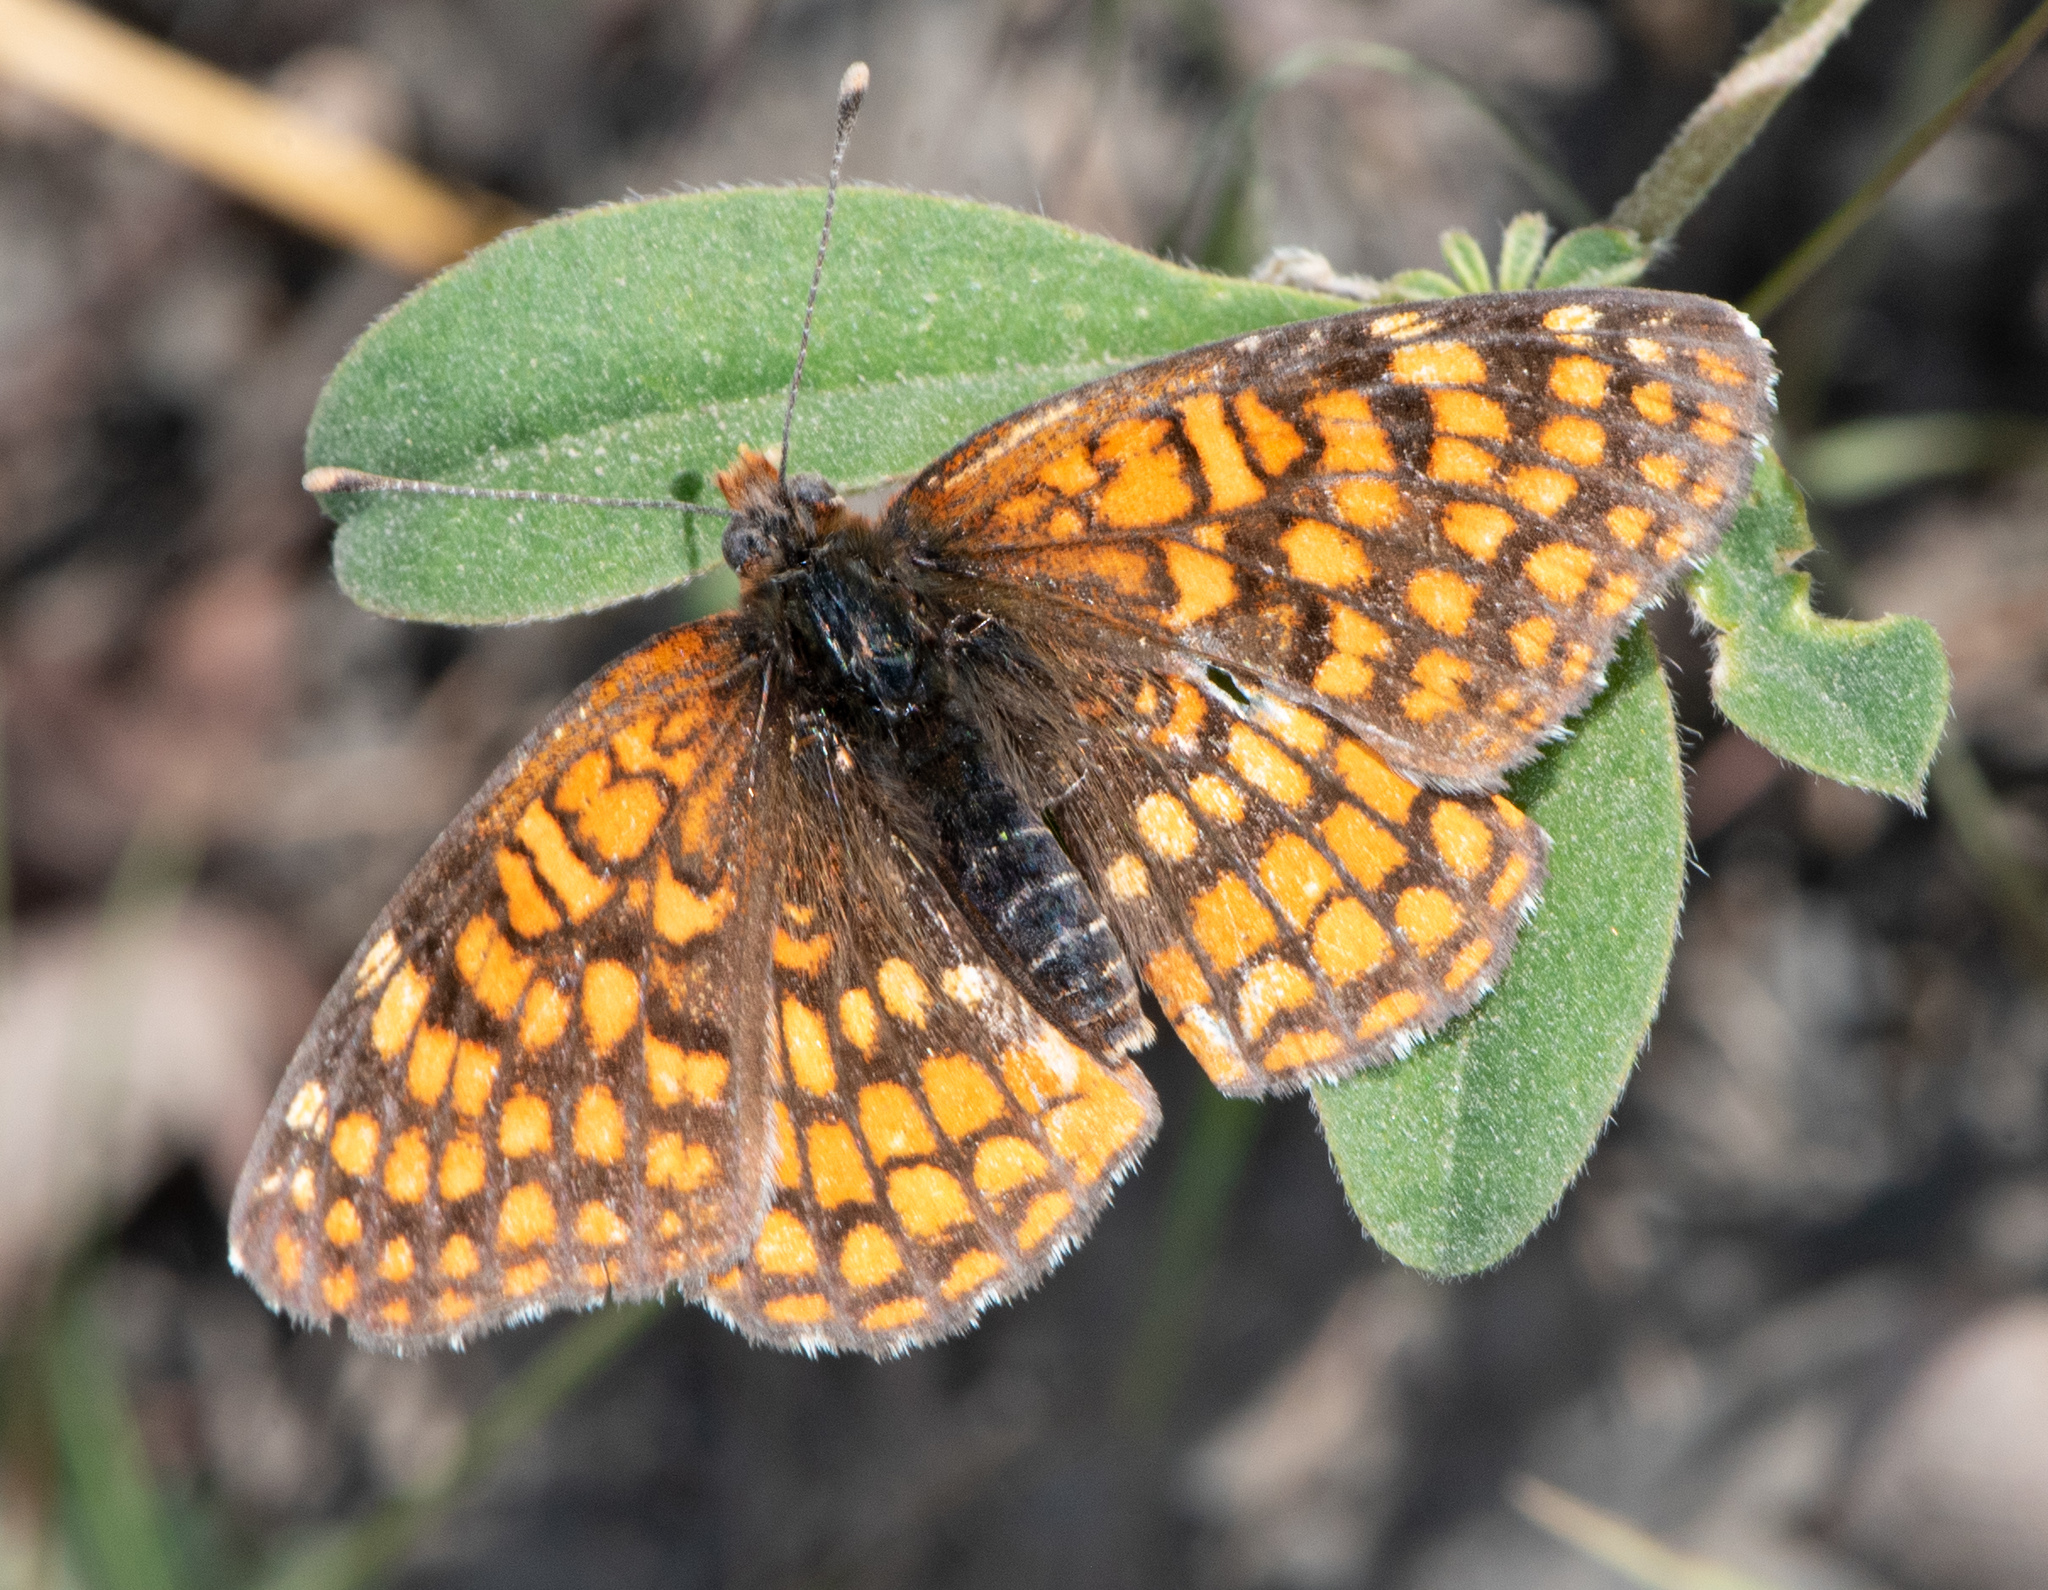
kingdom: Animalia
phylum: Arthropoda
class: Insecta
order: Lepidoptera
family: Nymphalidae
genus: Chlosyne
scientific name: Chlosyne palla
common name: Northern checkerspot
